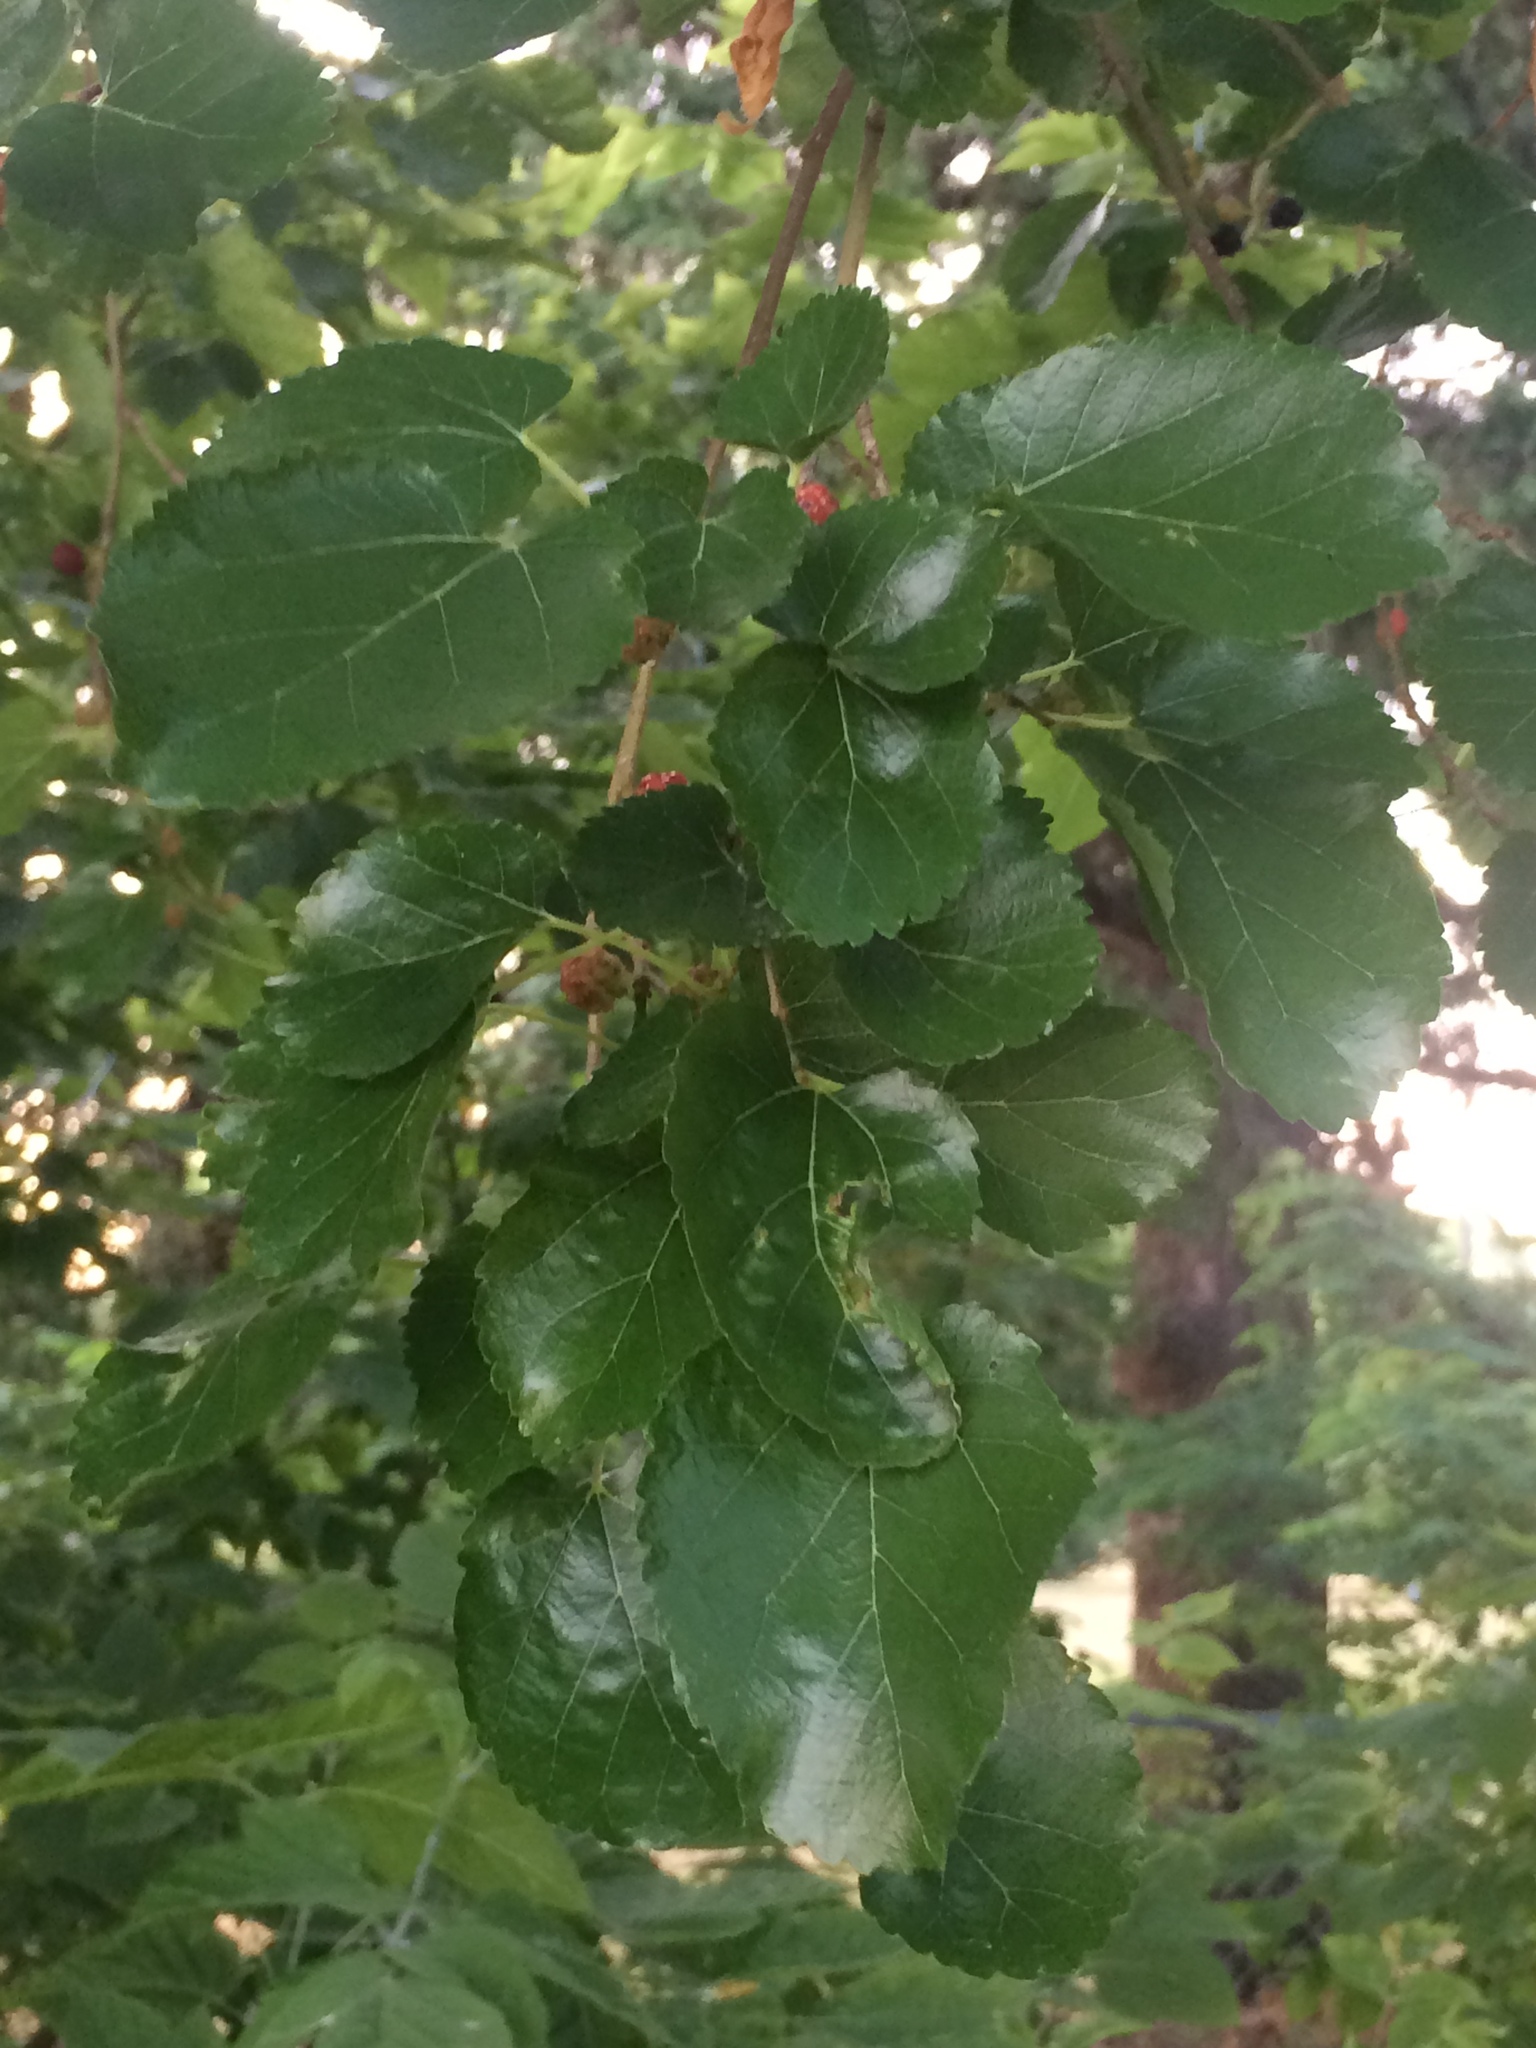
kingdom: Plantae
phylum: Tracheophyta
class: Magnoliopsida
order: Rosales
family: Moraceae
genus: Morus
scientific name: Morus alba
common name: White mulberry
